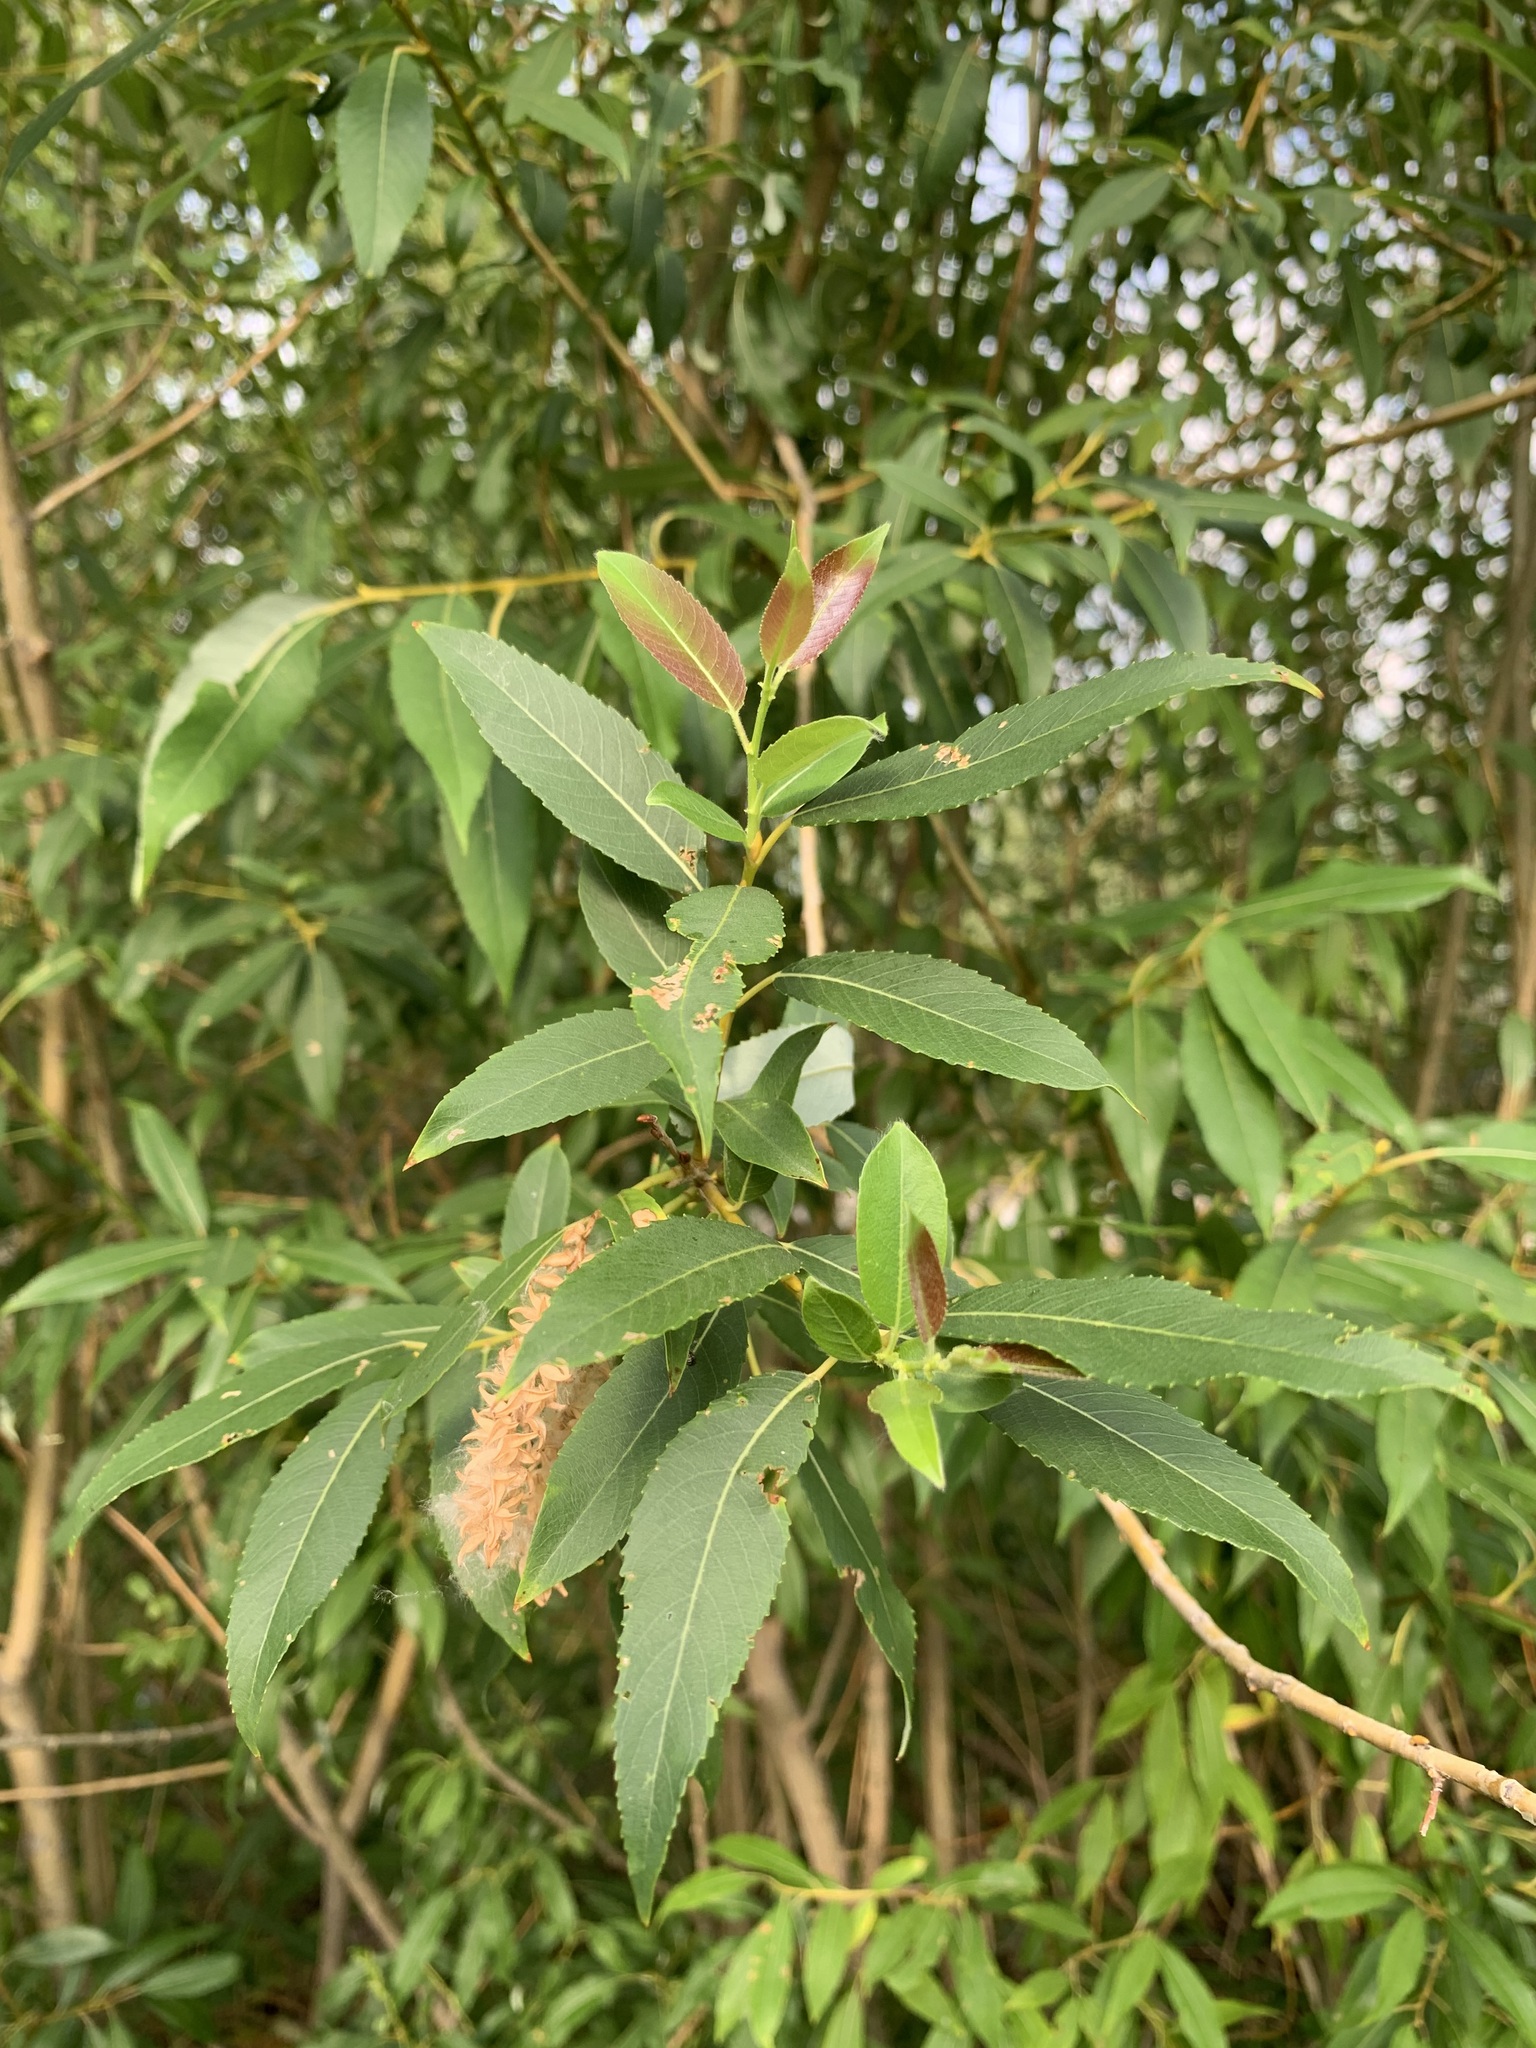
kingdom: Plantae
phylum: Tracheophyta
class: Magnoliopsida
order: Malpighiales
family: Salicaceae
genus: Salix
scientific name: Salix triandra
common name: Almond willow
